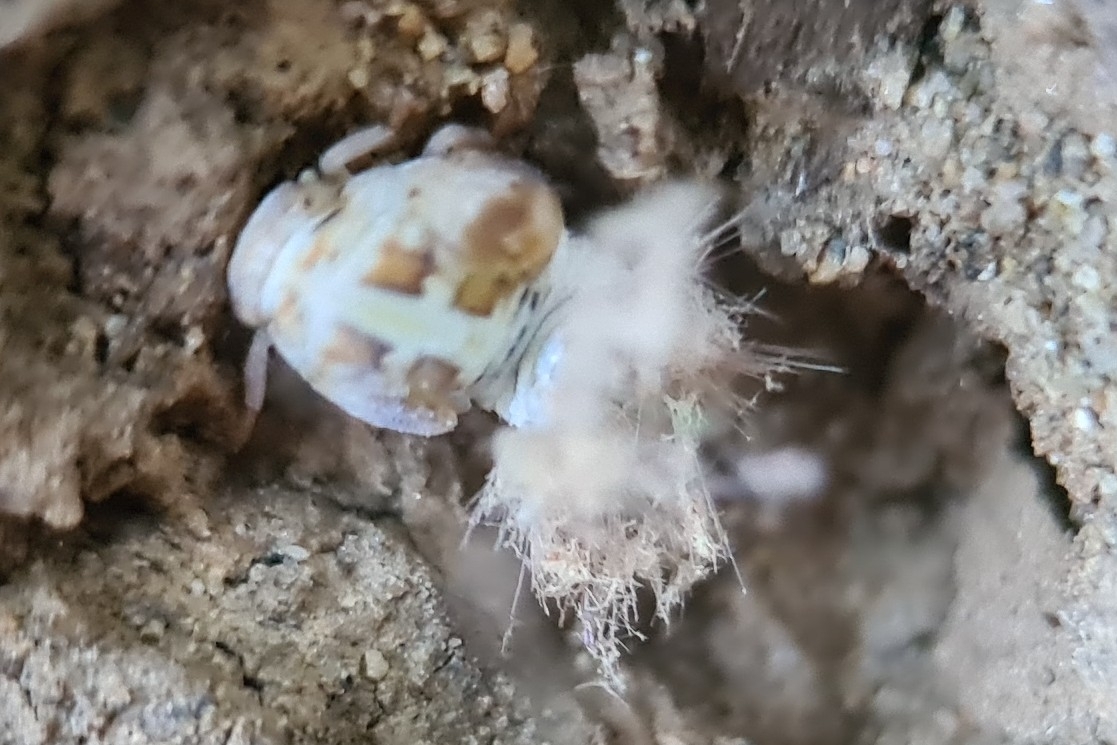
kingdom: Animalia
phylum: Arthropoda
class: Insecta
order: Hemiptera
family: Ricaniidae
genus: Scolypopa
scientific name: Scolypopa australis
